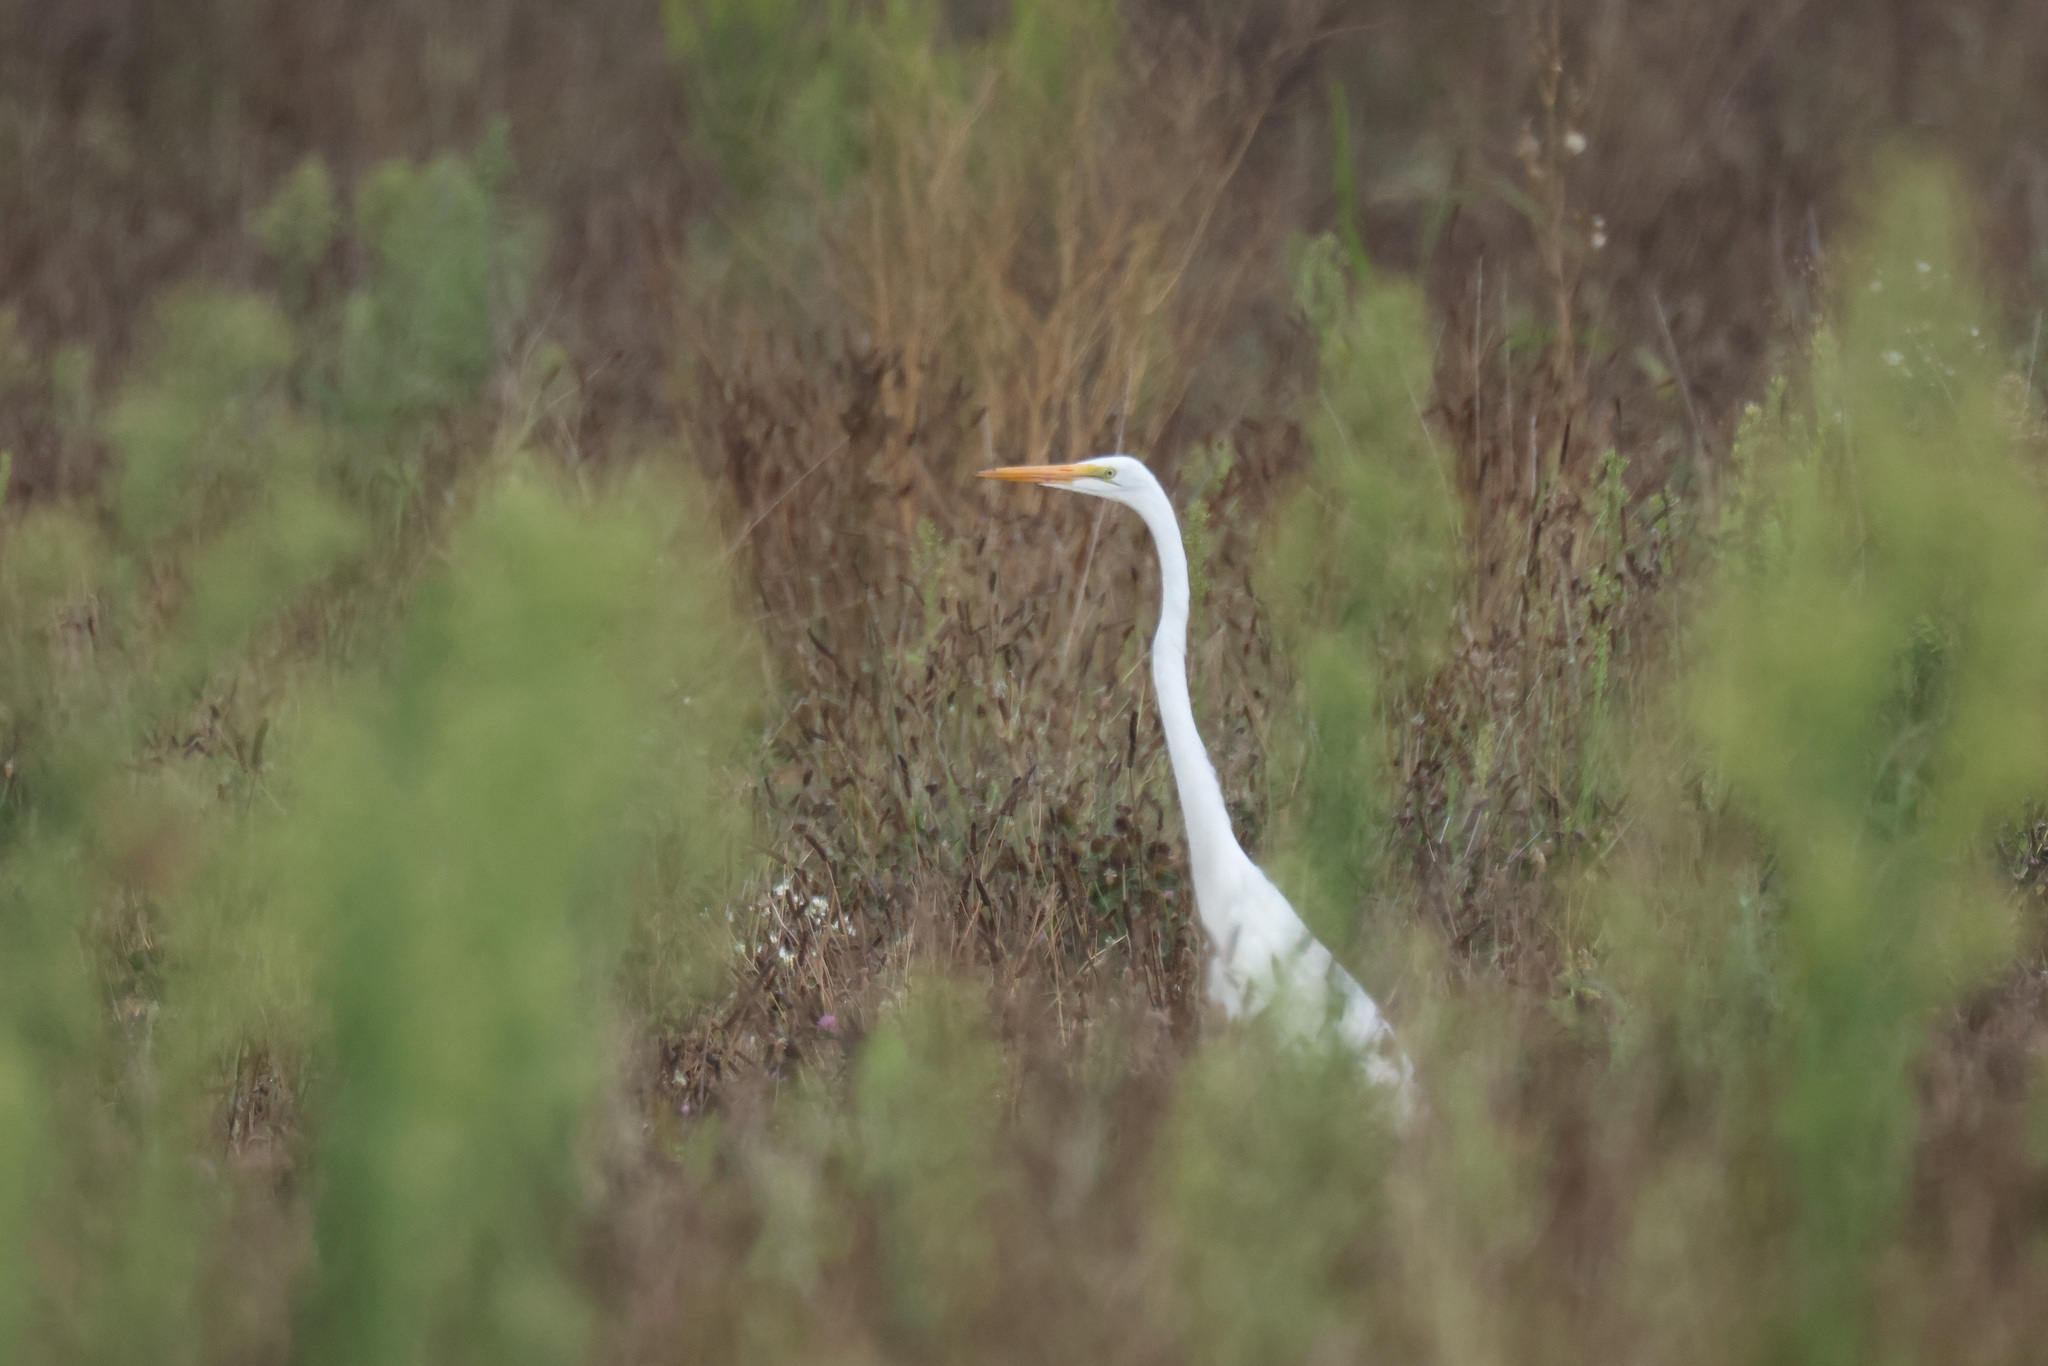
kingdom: Animalia
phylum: Chordata
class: Aves
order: Pelecaniformes
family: Ardeidae
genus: Ardea
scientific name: Ardea alba
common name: Great egret
